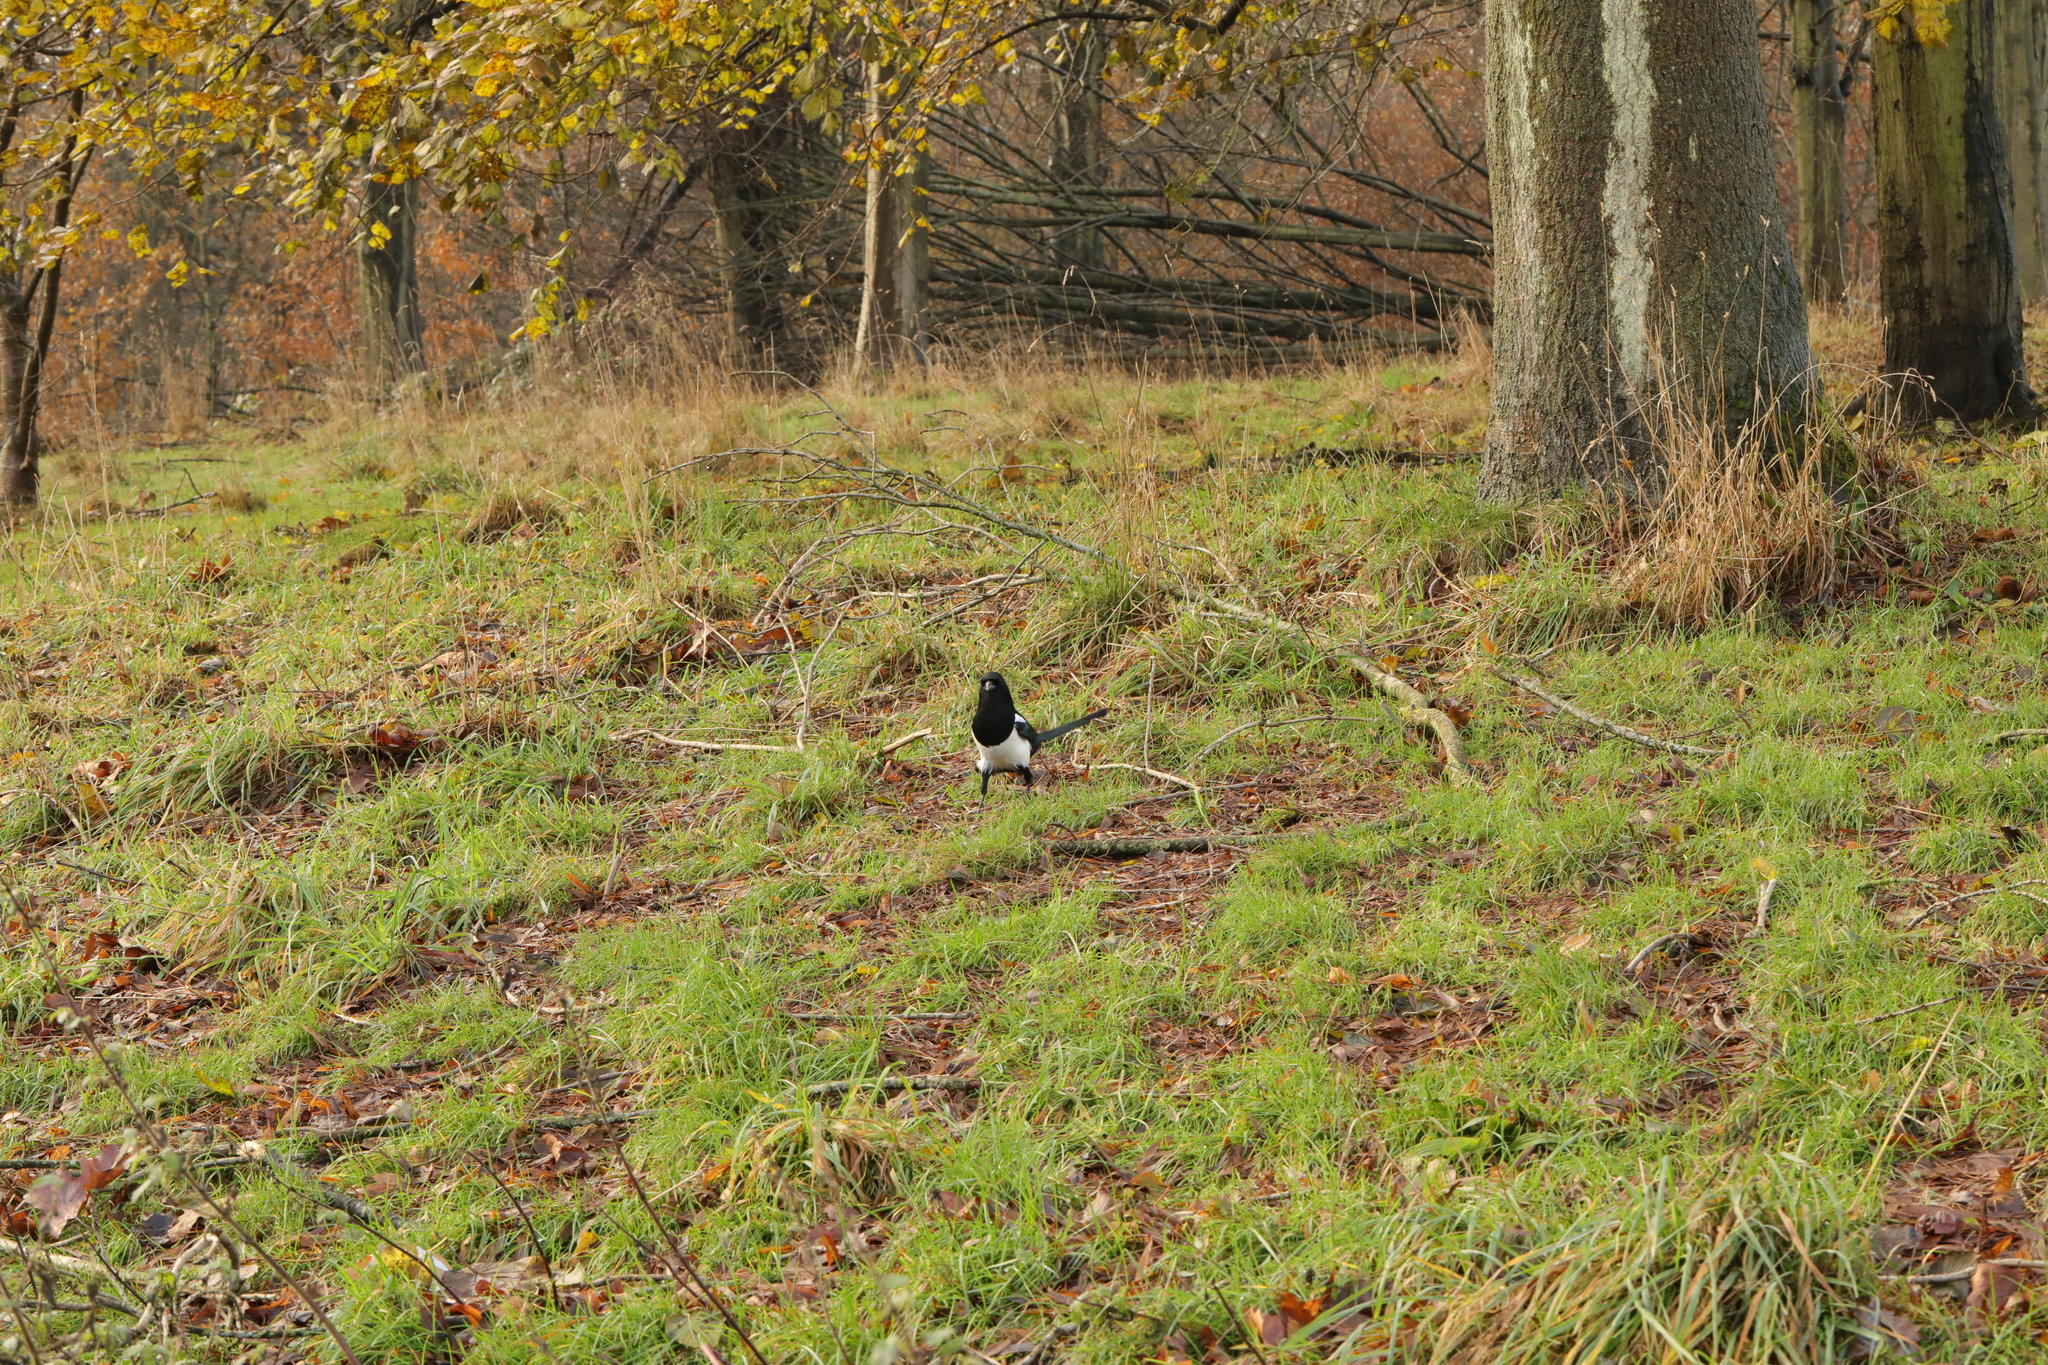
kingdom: Animalia
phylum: Chordata
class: Aves
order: Passeriformes
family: Corvidae
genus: Pica
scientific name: Pica pica
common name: Eurasian magpie
